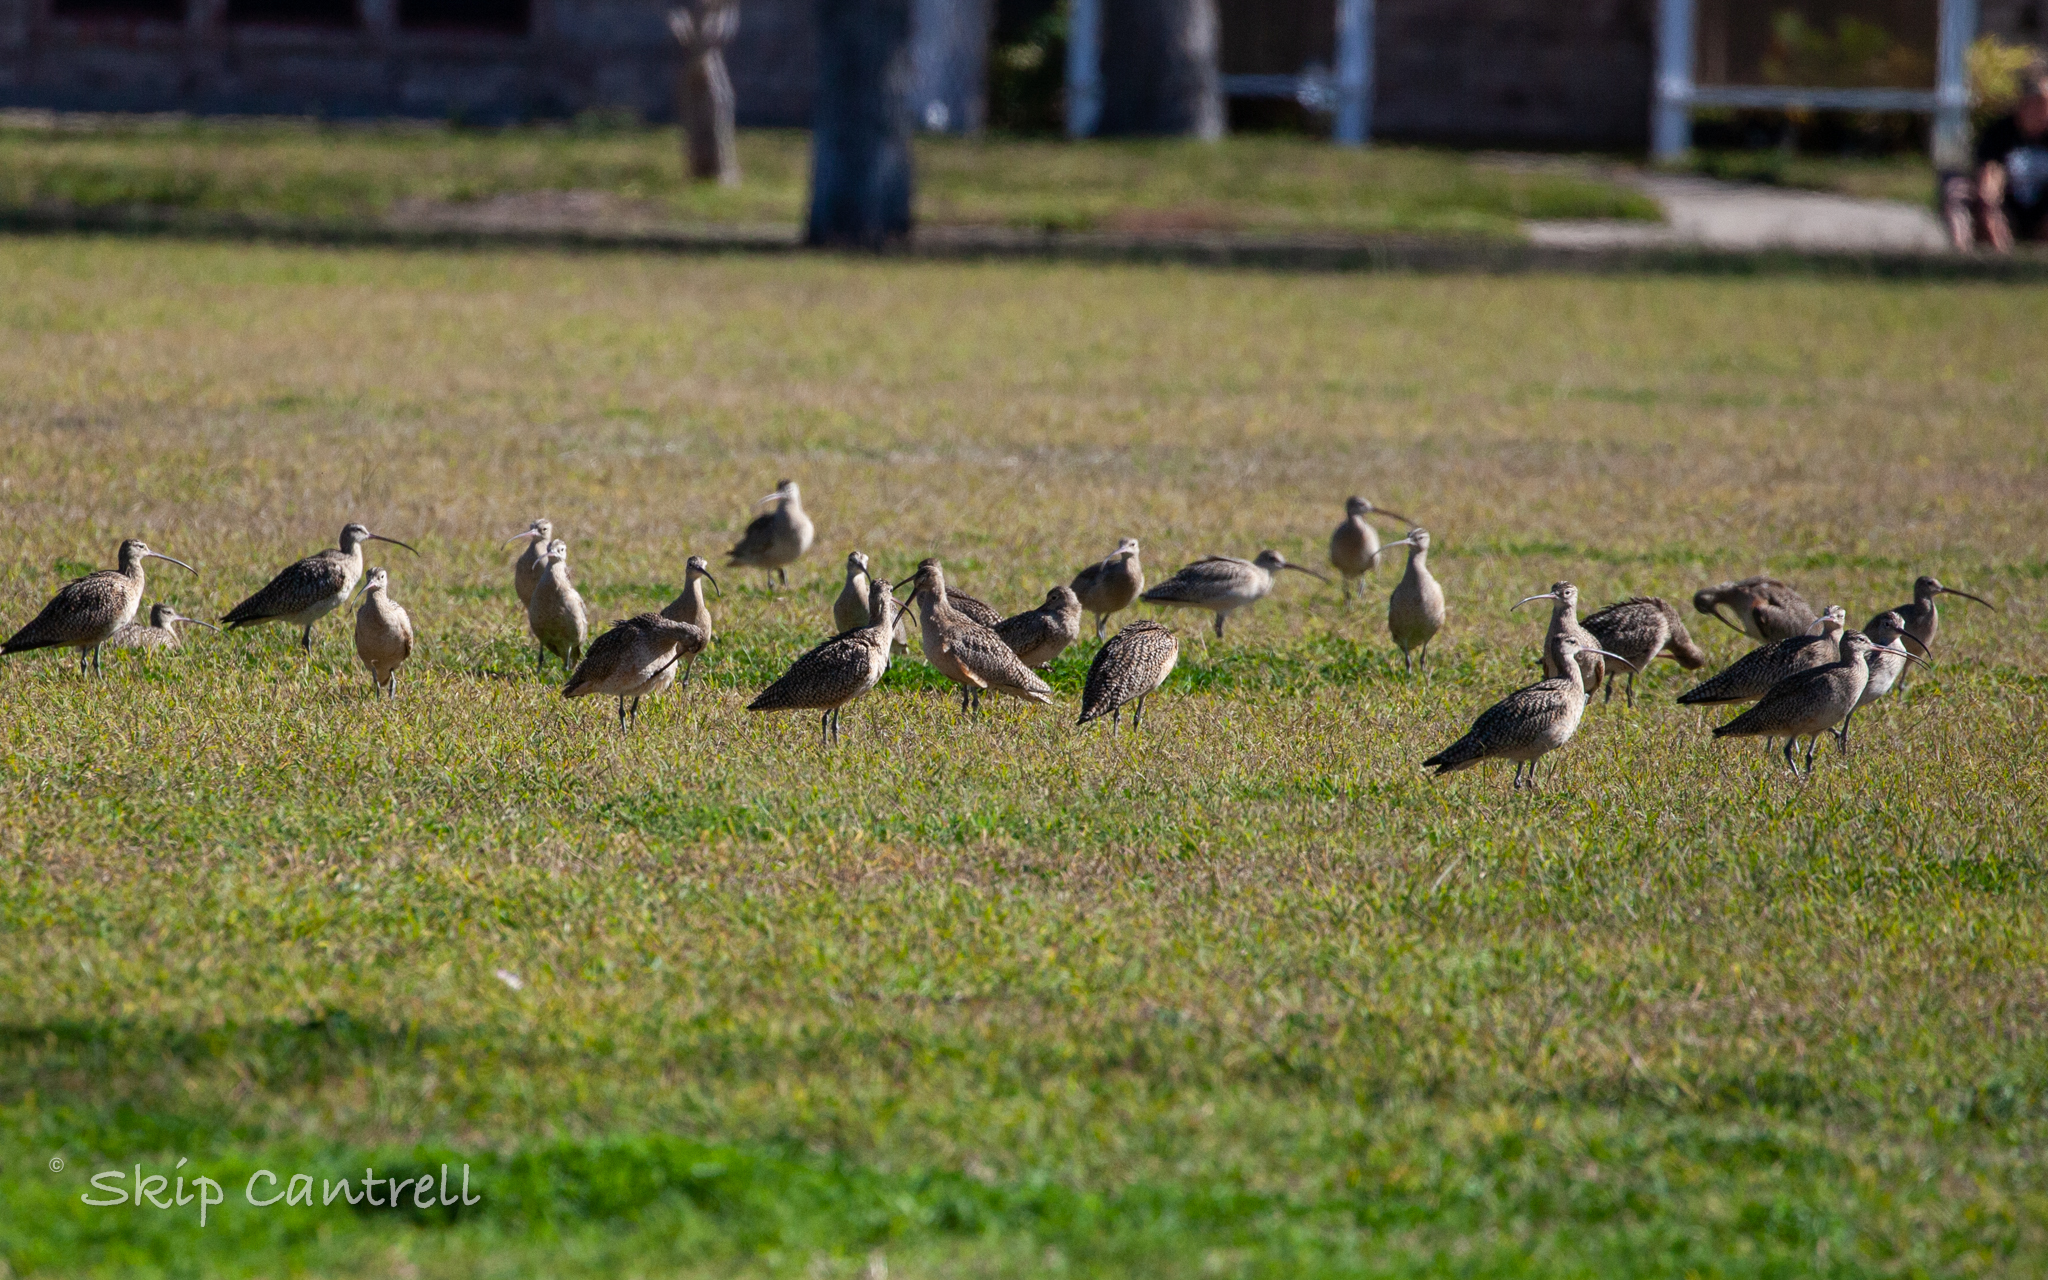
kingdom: Animalia
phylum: Chordata
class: Aves
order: Charadriiformes
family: Scolopacidae
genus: Numenius
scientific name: Numenius americanus
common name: Long-billed curlew
